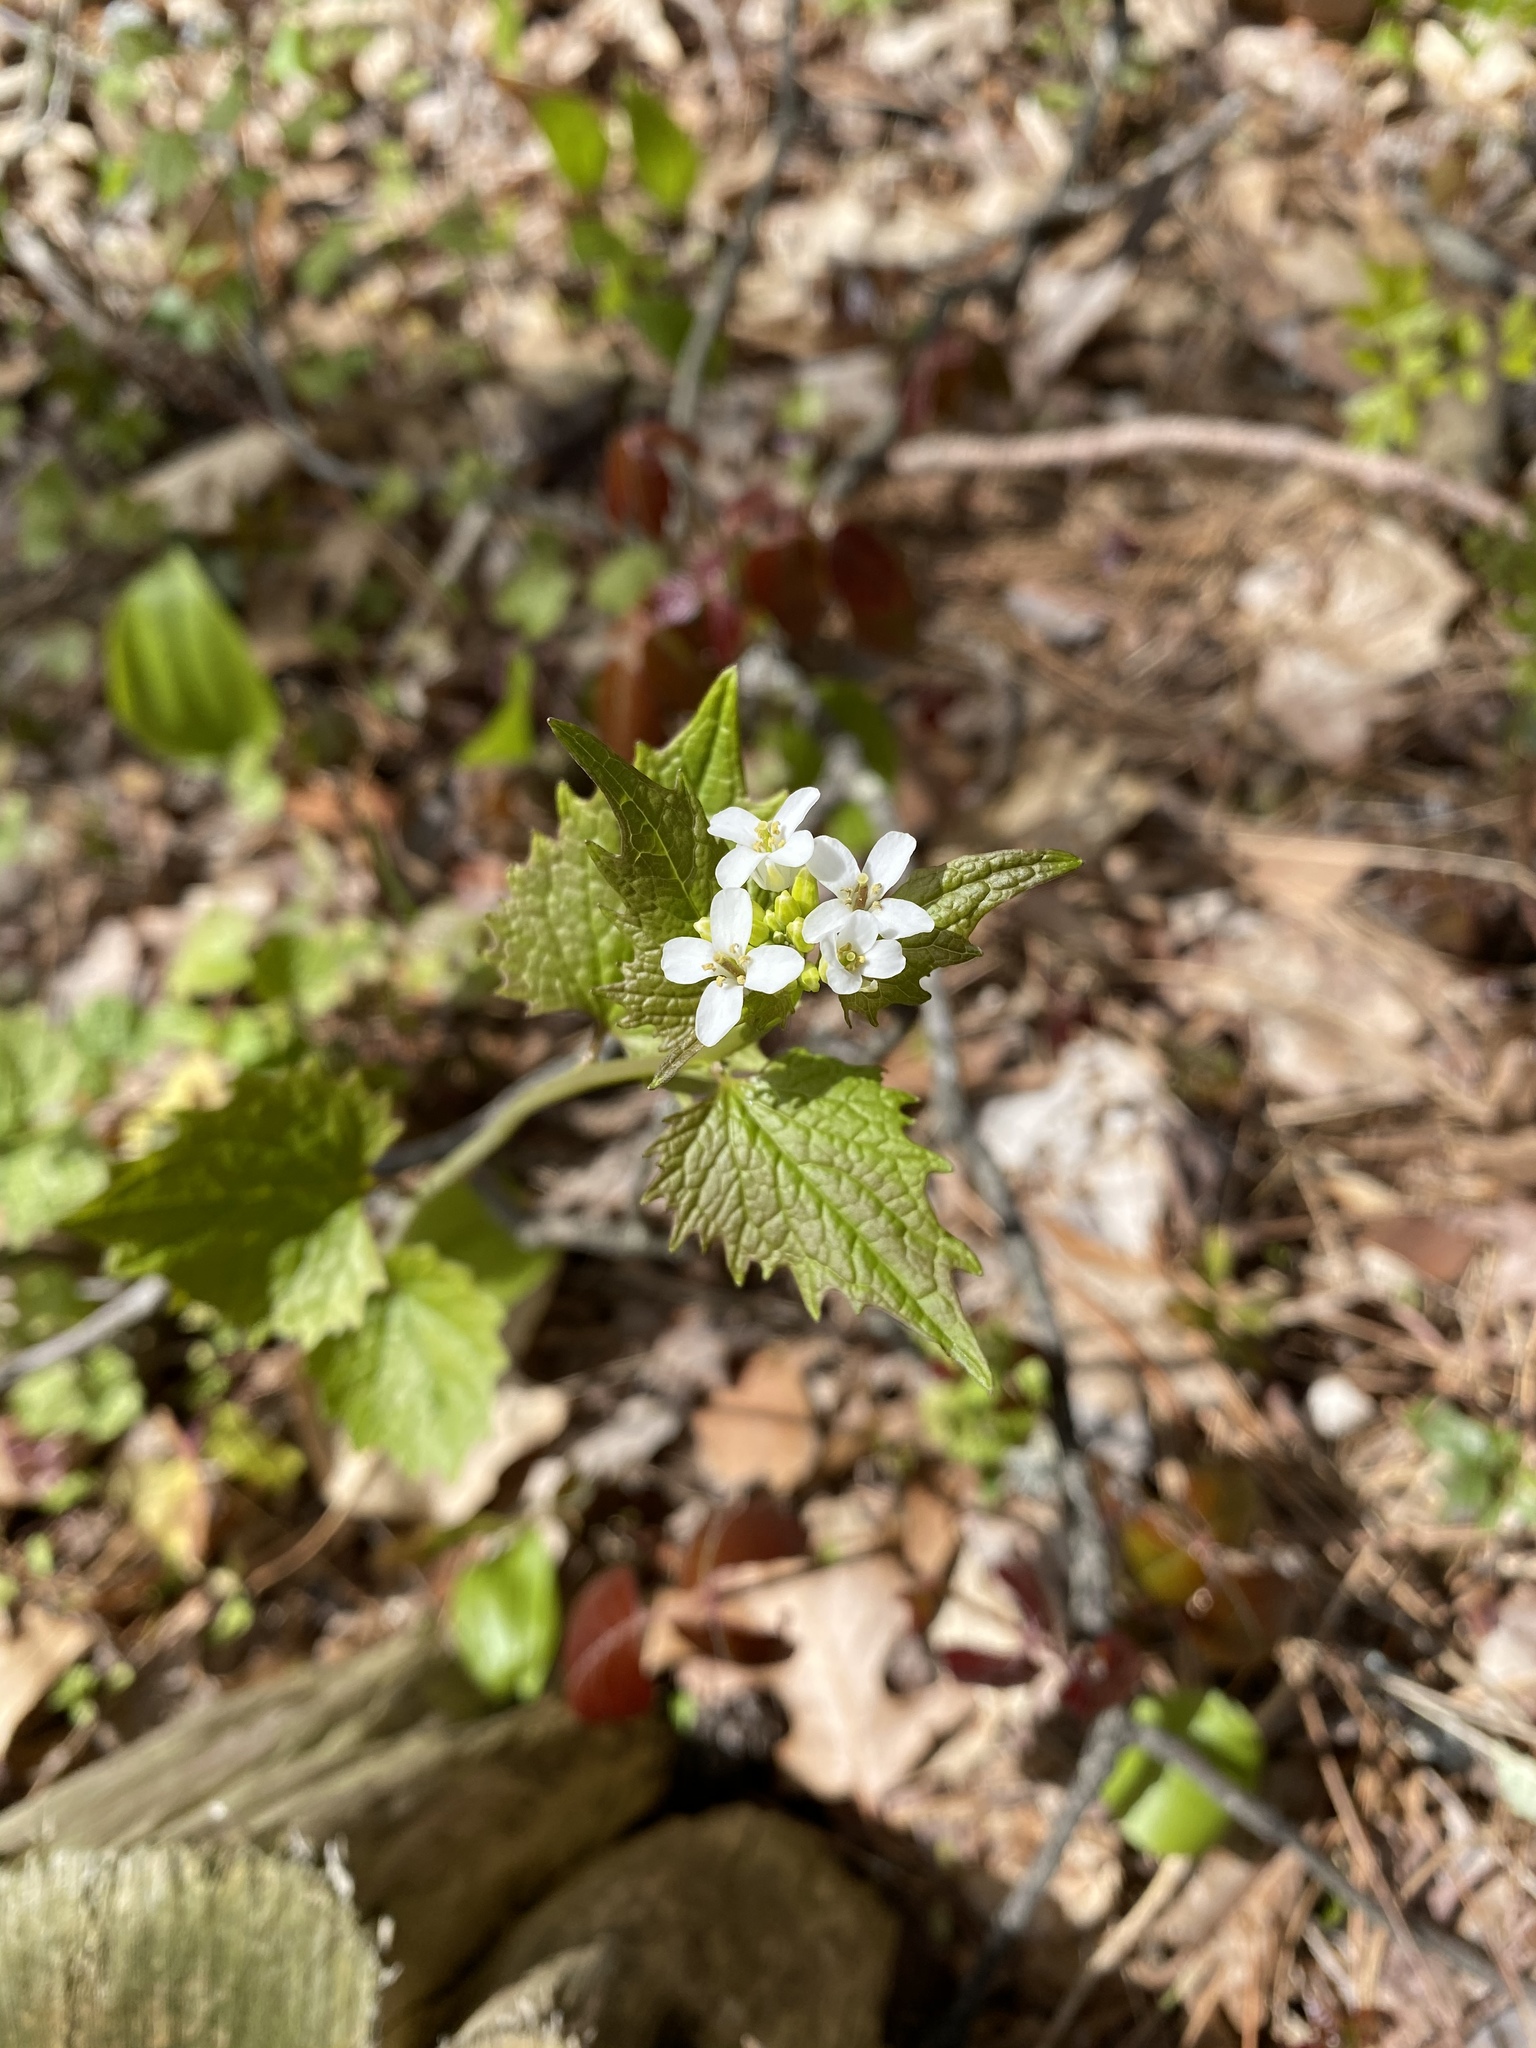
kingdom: Plantae
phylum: Tracheophyta
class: Magnoliopsida
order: Brassicales
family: Brassicaceae
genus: Alliaria
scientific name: Alliaria petiolata
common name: Garlic mustard
